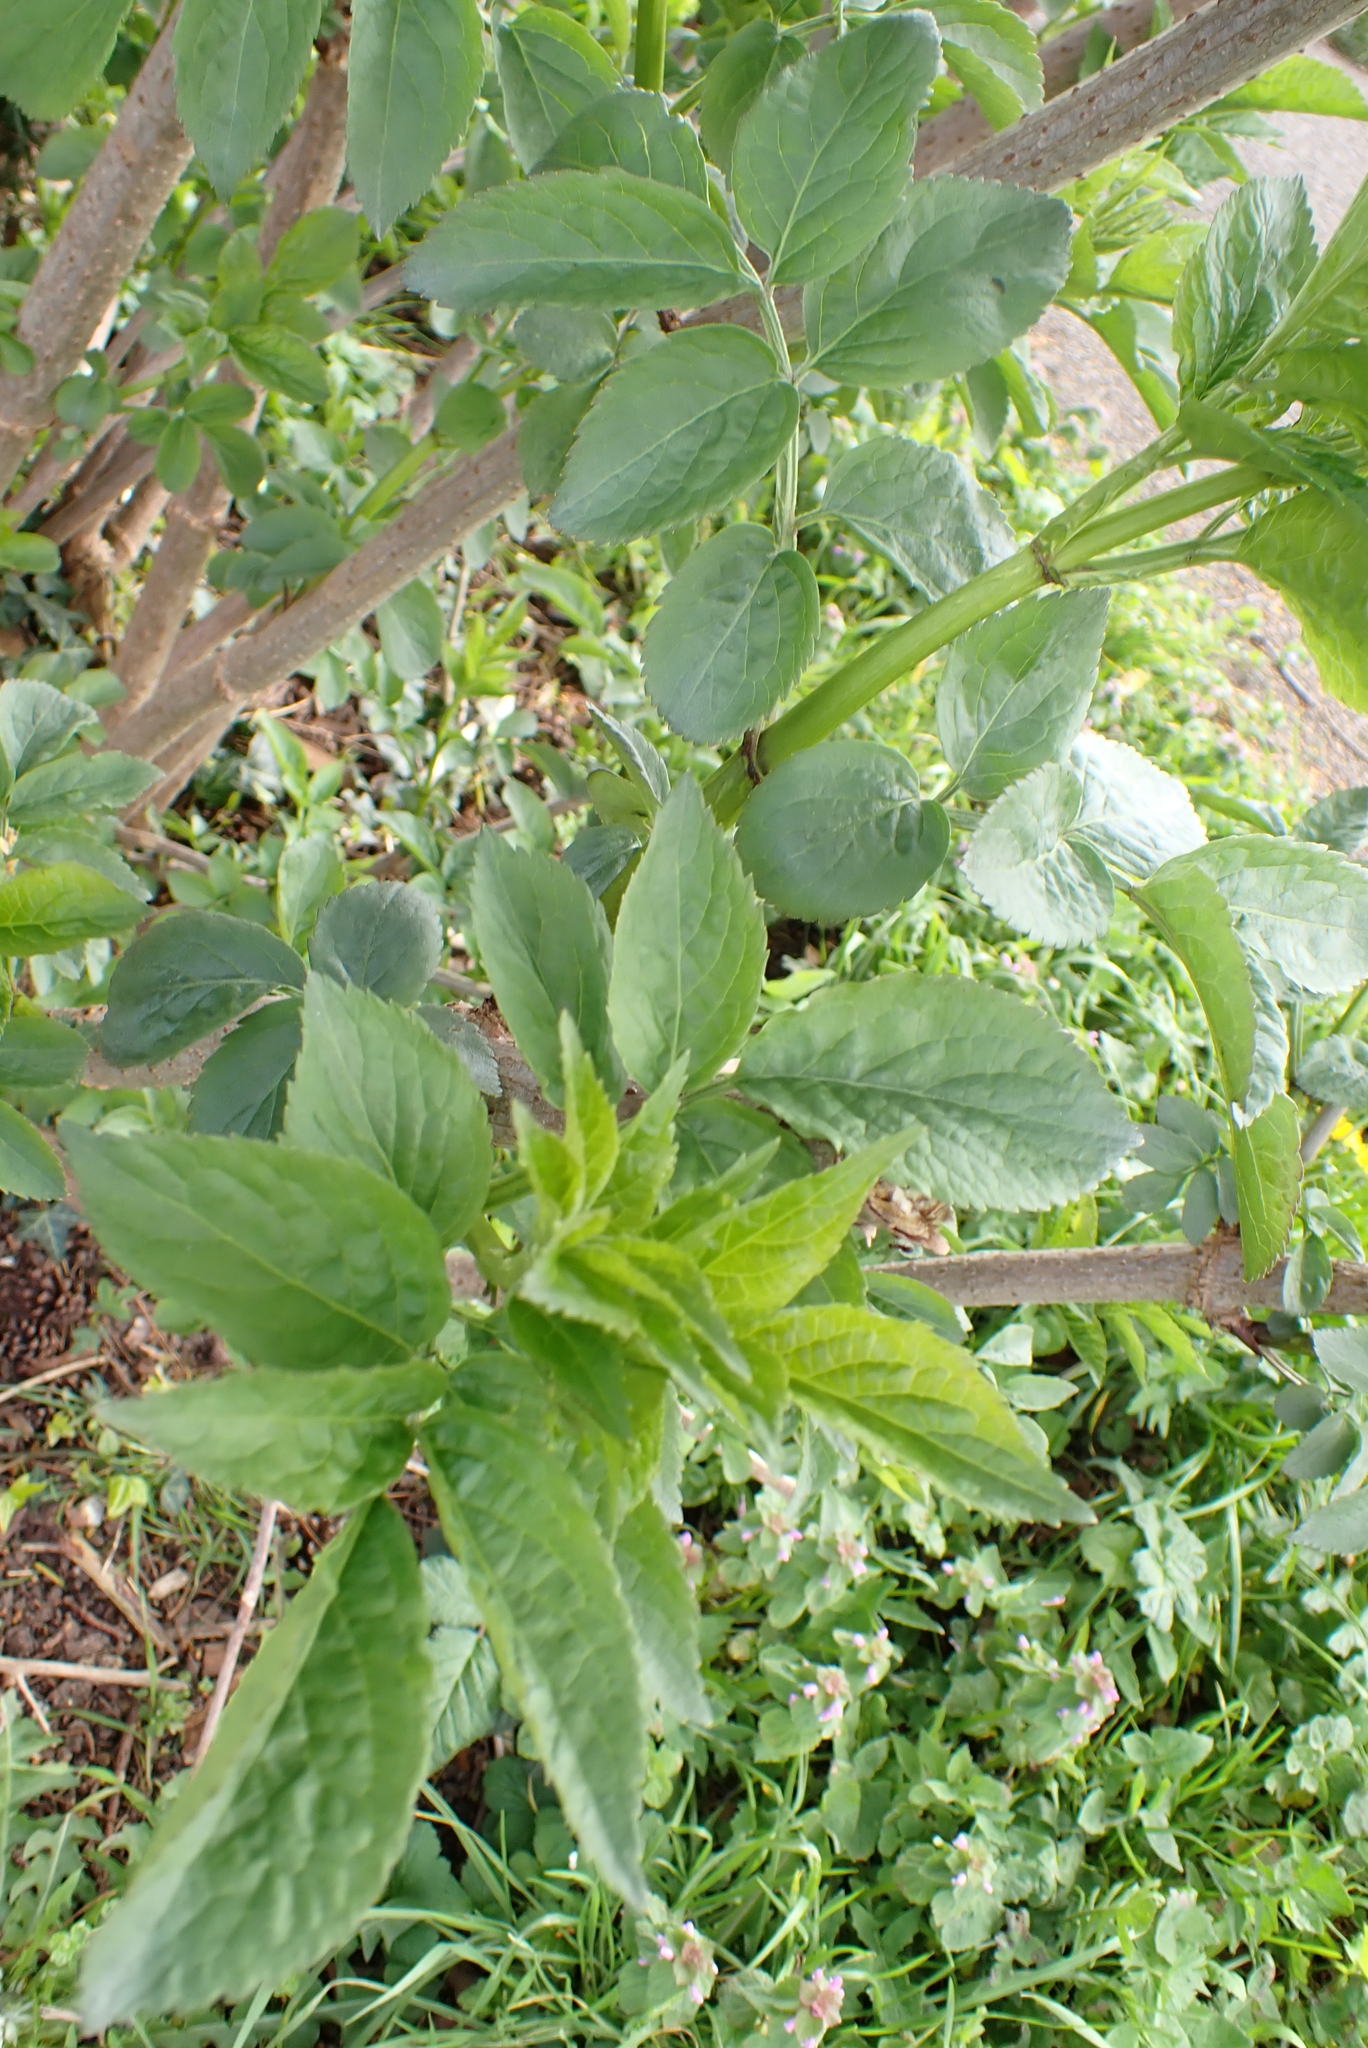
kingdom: Plantae
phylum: Tracheophyta
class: Magnoliopsida
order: Dipsacales
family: Viburnaceae
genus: Sambucus
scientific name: Sambucus nigra
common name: Elder
